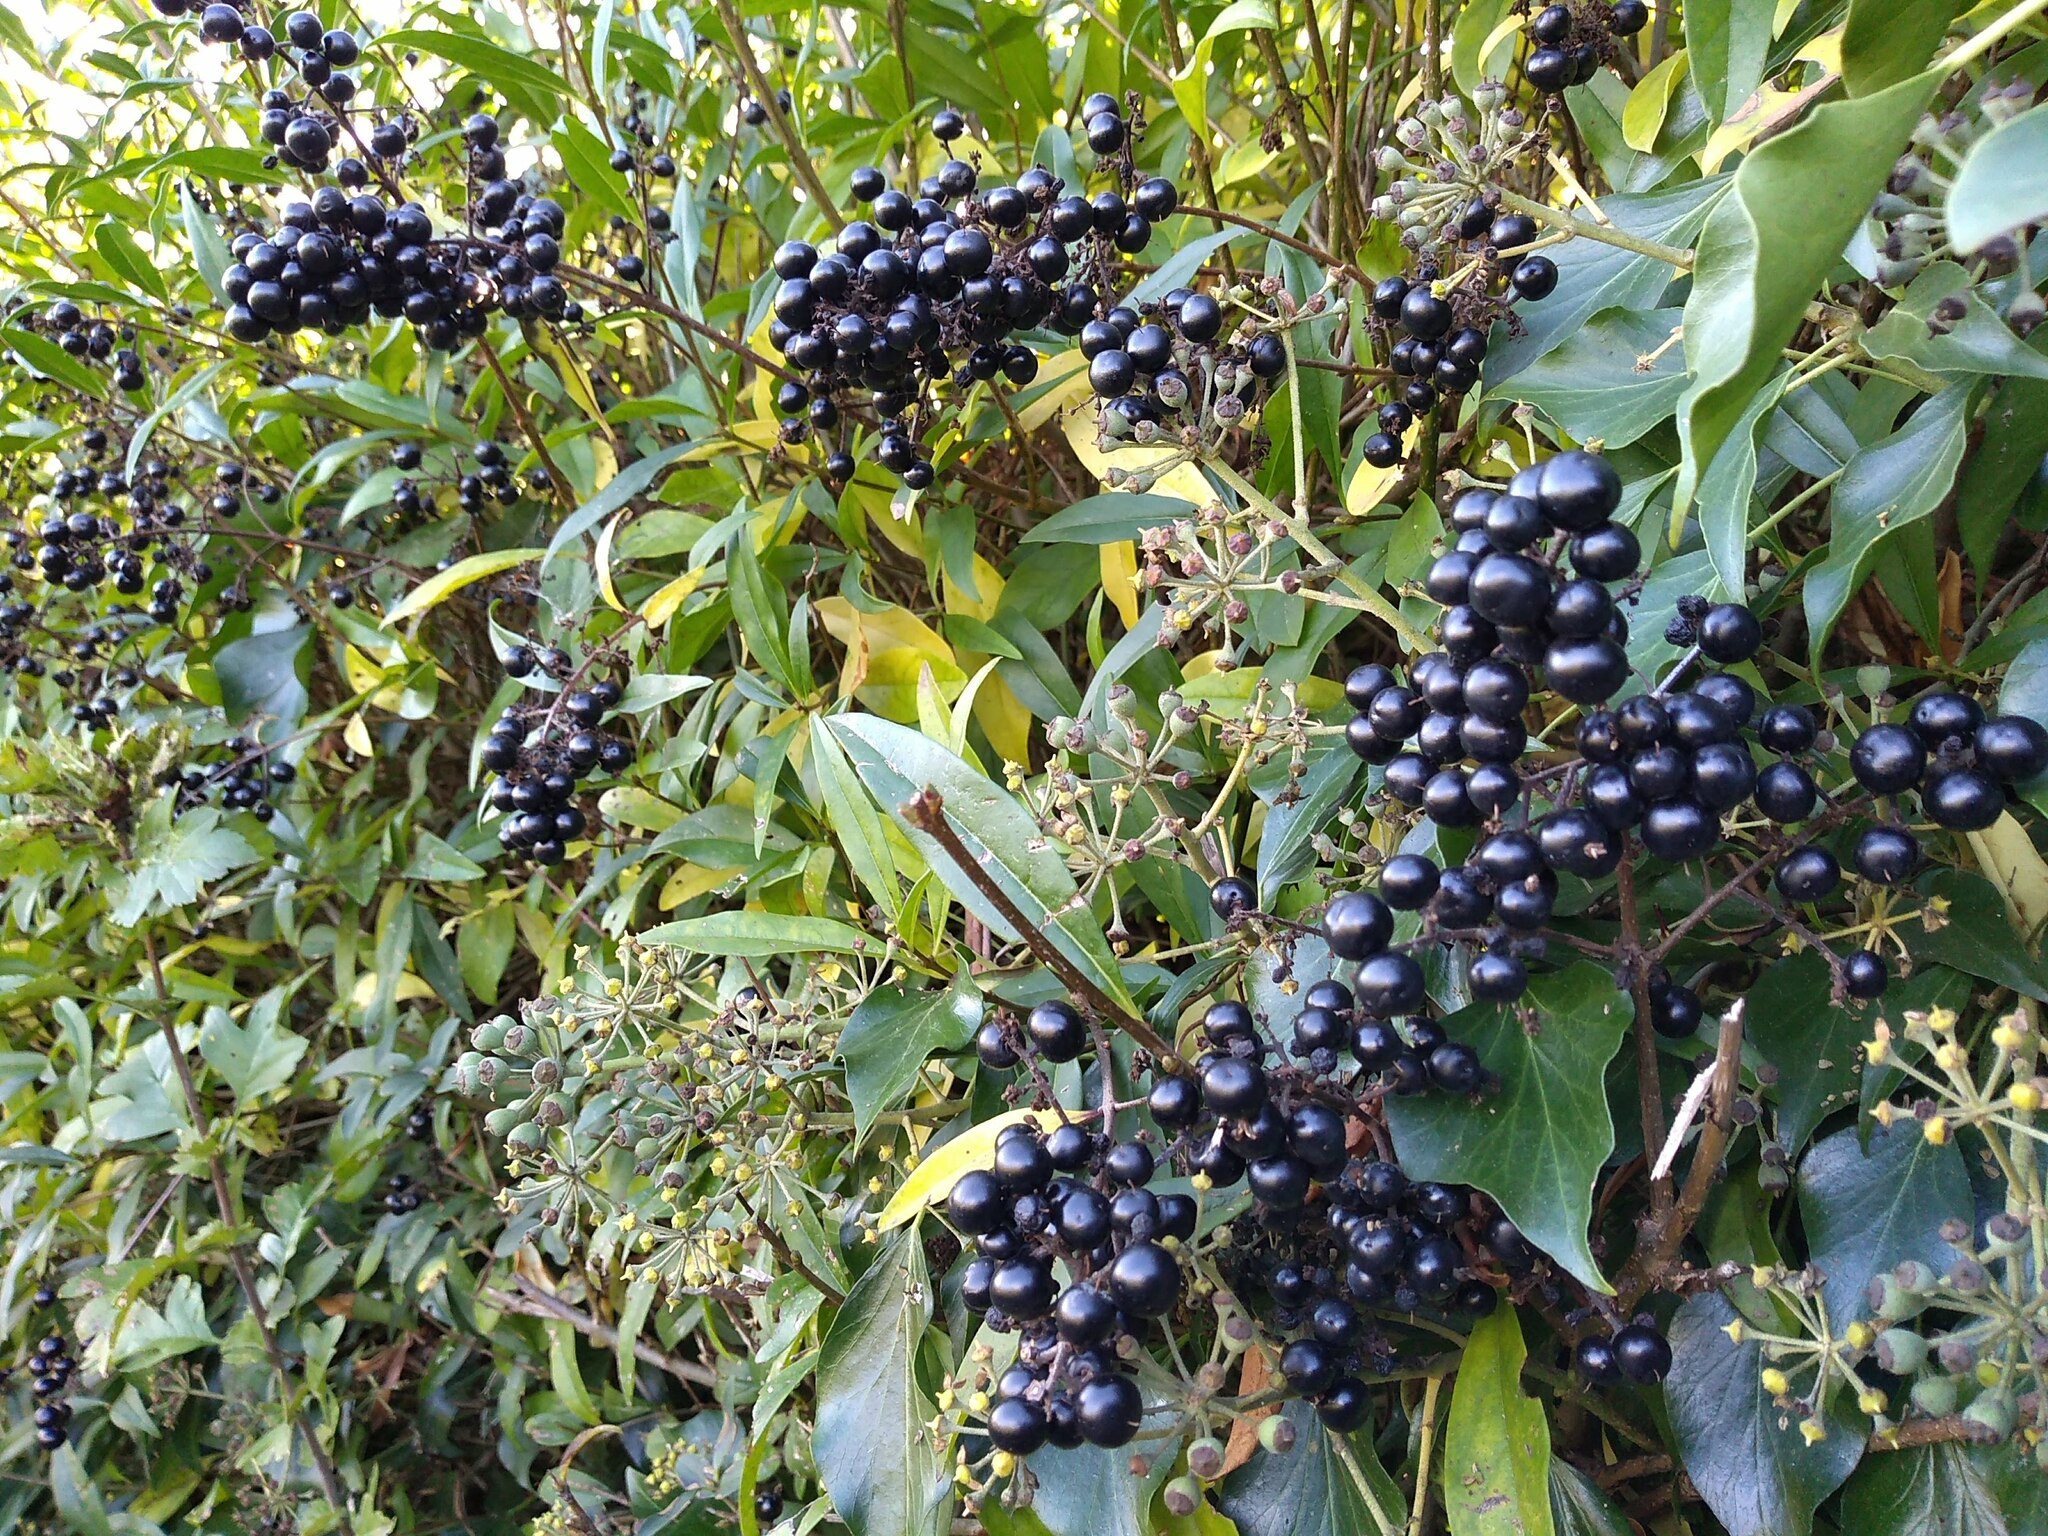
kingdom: Plantae
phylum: Tracheophyta
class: Magnoliopsida
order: Lamiales
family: Oleaceae
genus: Ligustrum
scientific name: Ligustrum vulgare
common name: Wild privet
